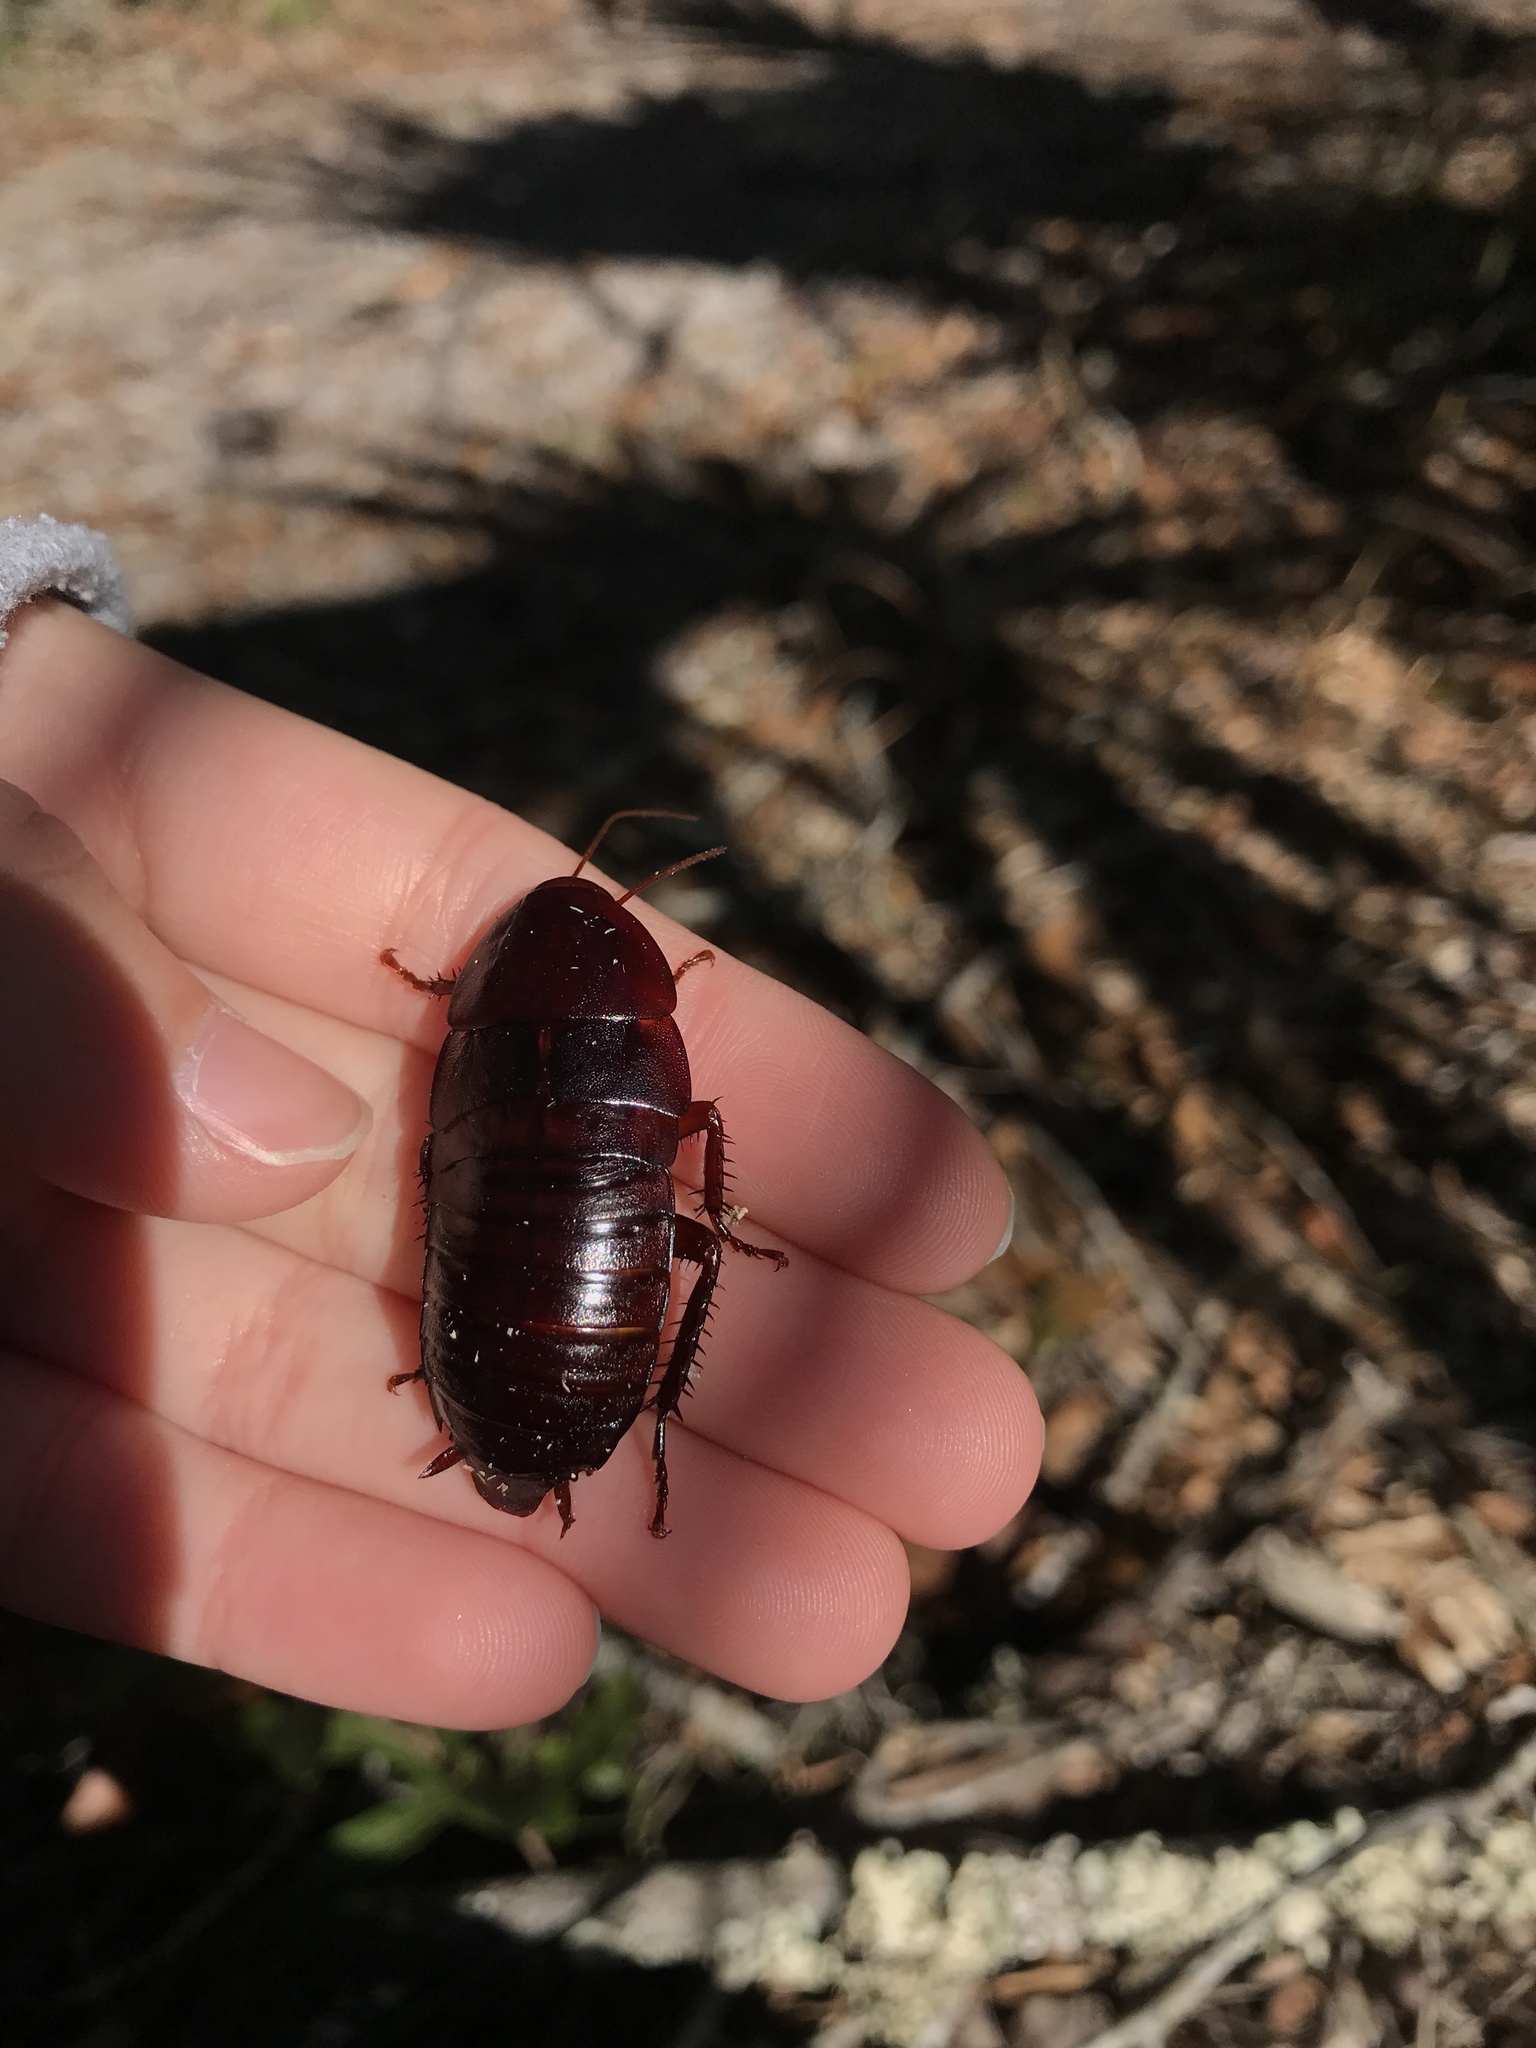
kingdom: Animalia
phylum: Arthropoda
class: Insecta
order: Blattodea
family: Blattidae
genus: Eurycotis
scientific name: Eurycotis floridana
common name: Florida cockroach
